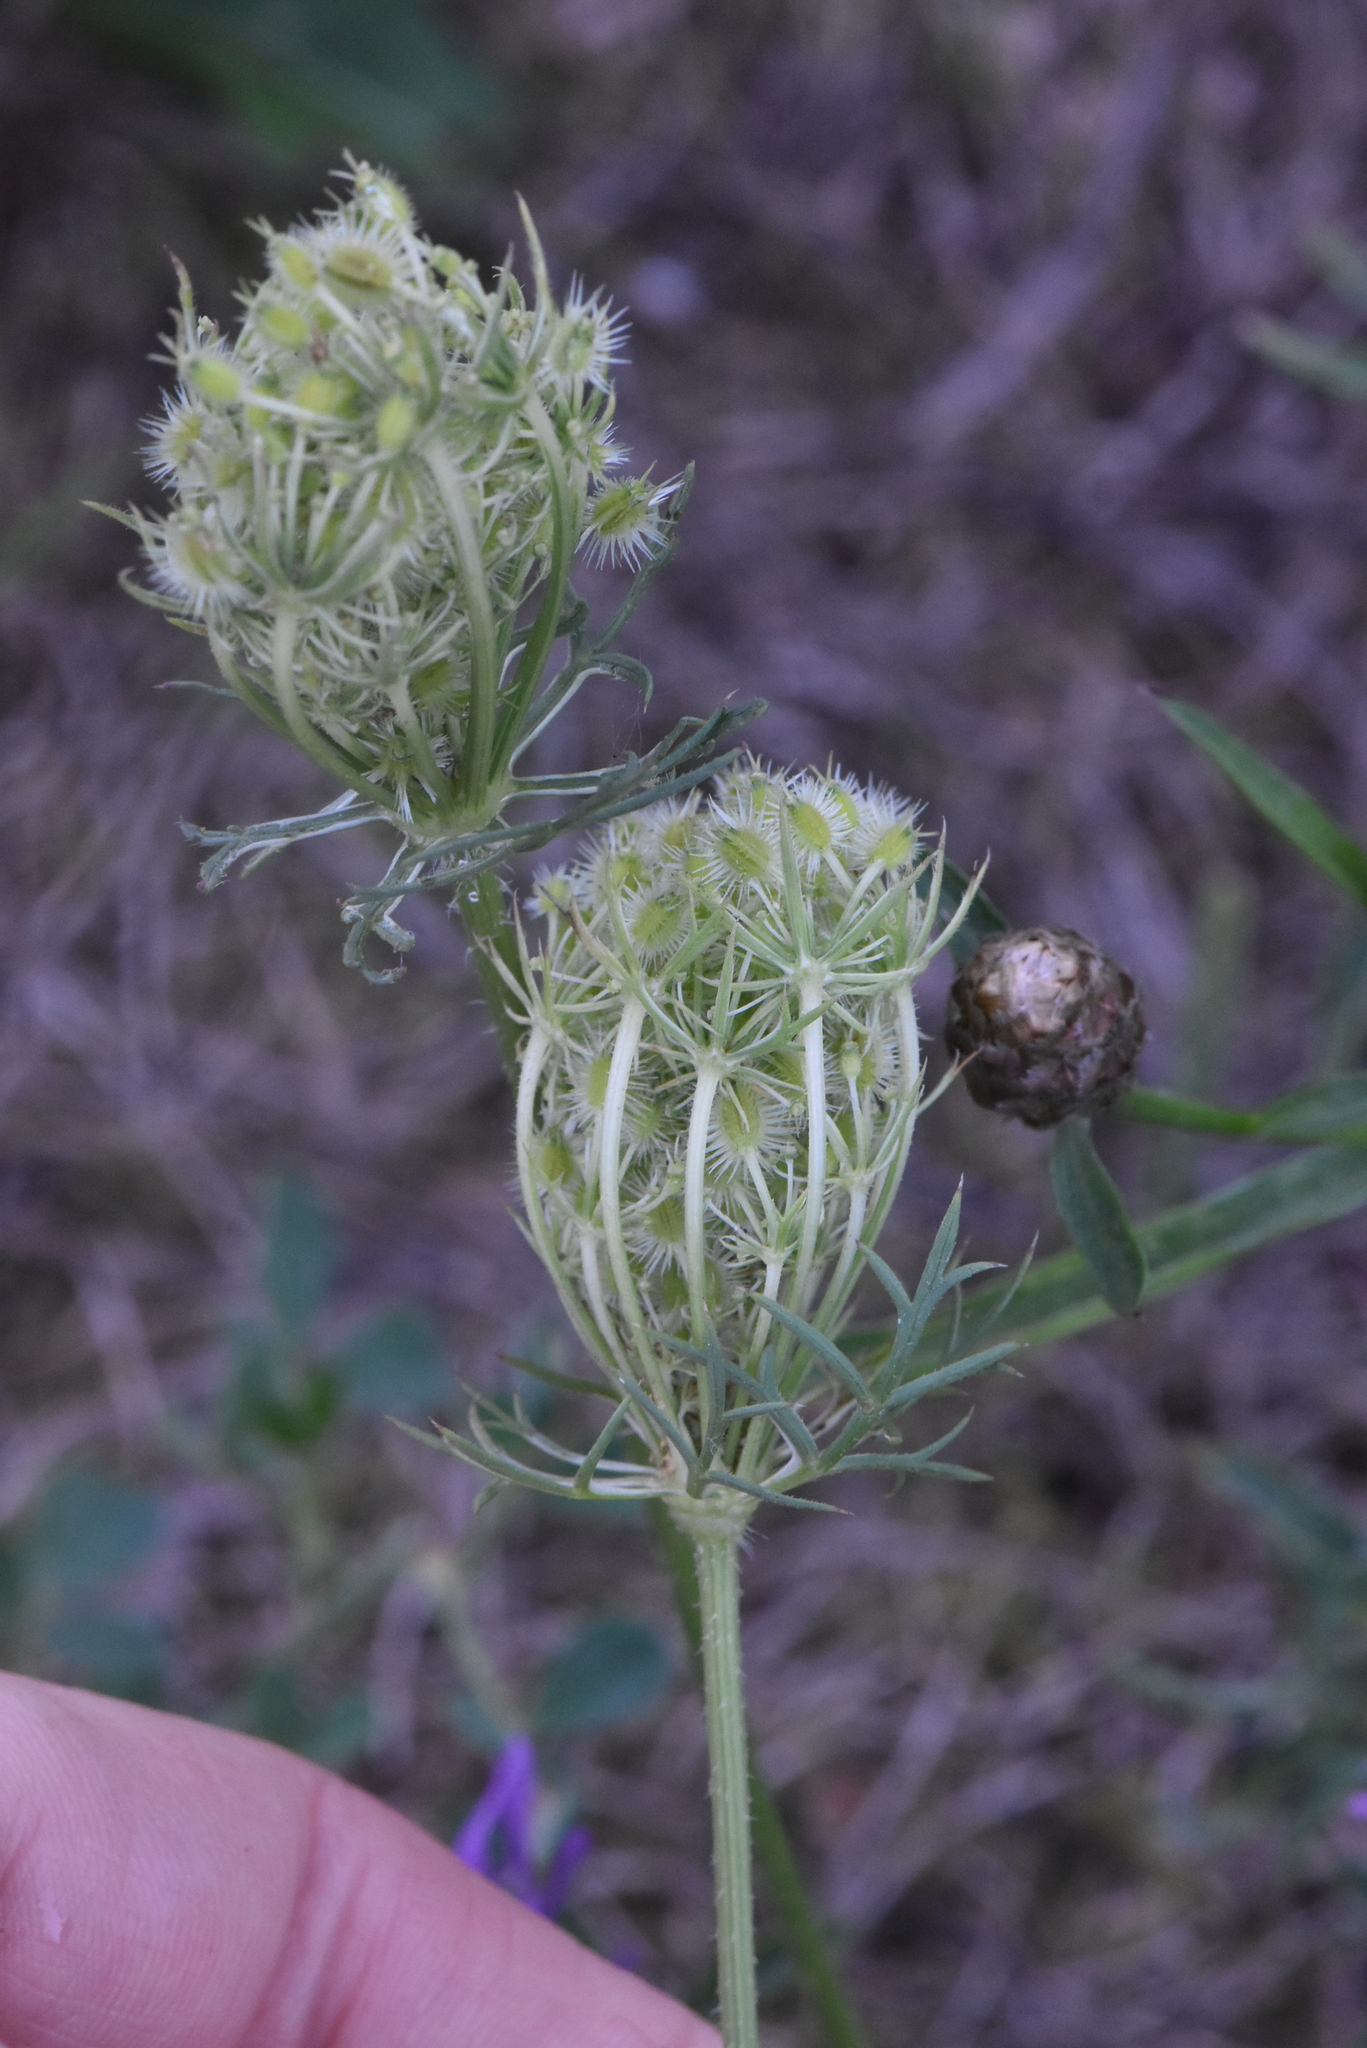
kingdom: Plantae
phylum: Tracheophyta
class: Magnoliopsida
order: Apiales
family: Apiaceae
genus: Daucus
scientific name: Daucus carota
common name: Wild carrot
